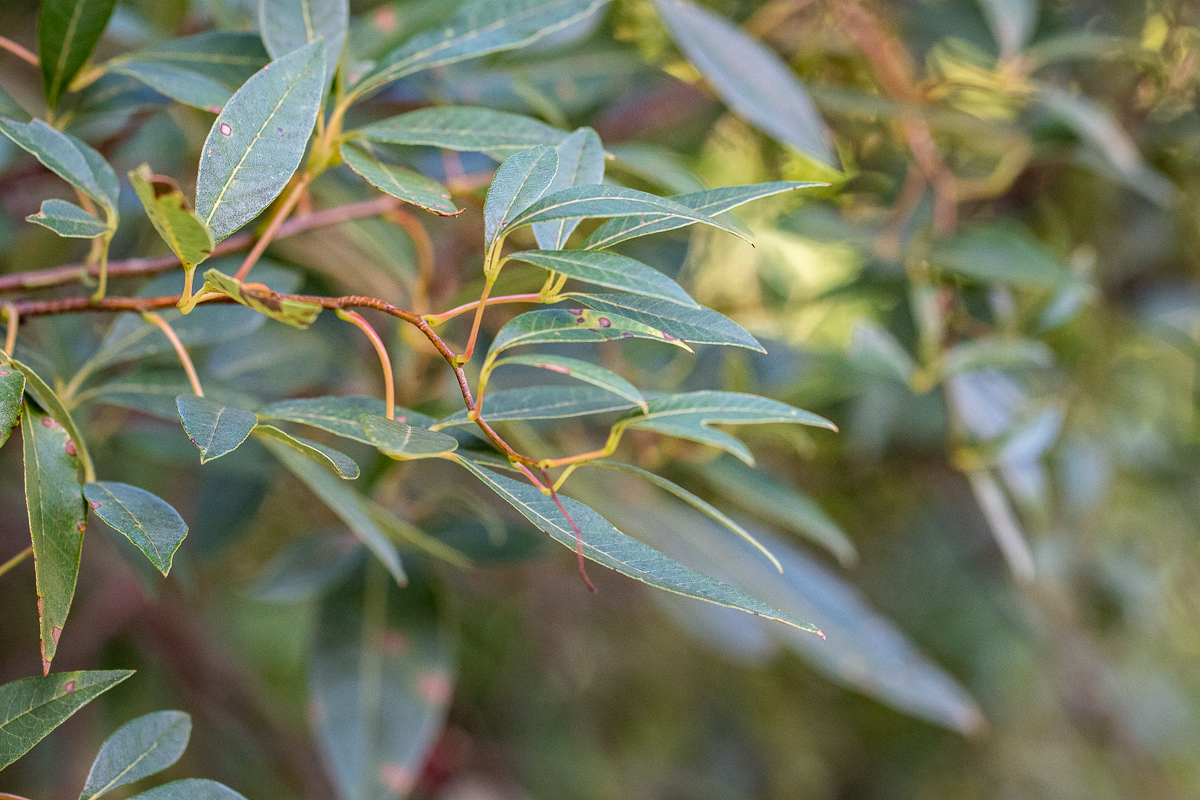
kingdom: Plantae
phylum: Tracheophyta
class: Magnoliopsida
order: Sapindales
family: Anacardiaceae
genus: Searsia
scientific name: Searsia tomentosa
